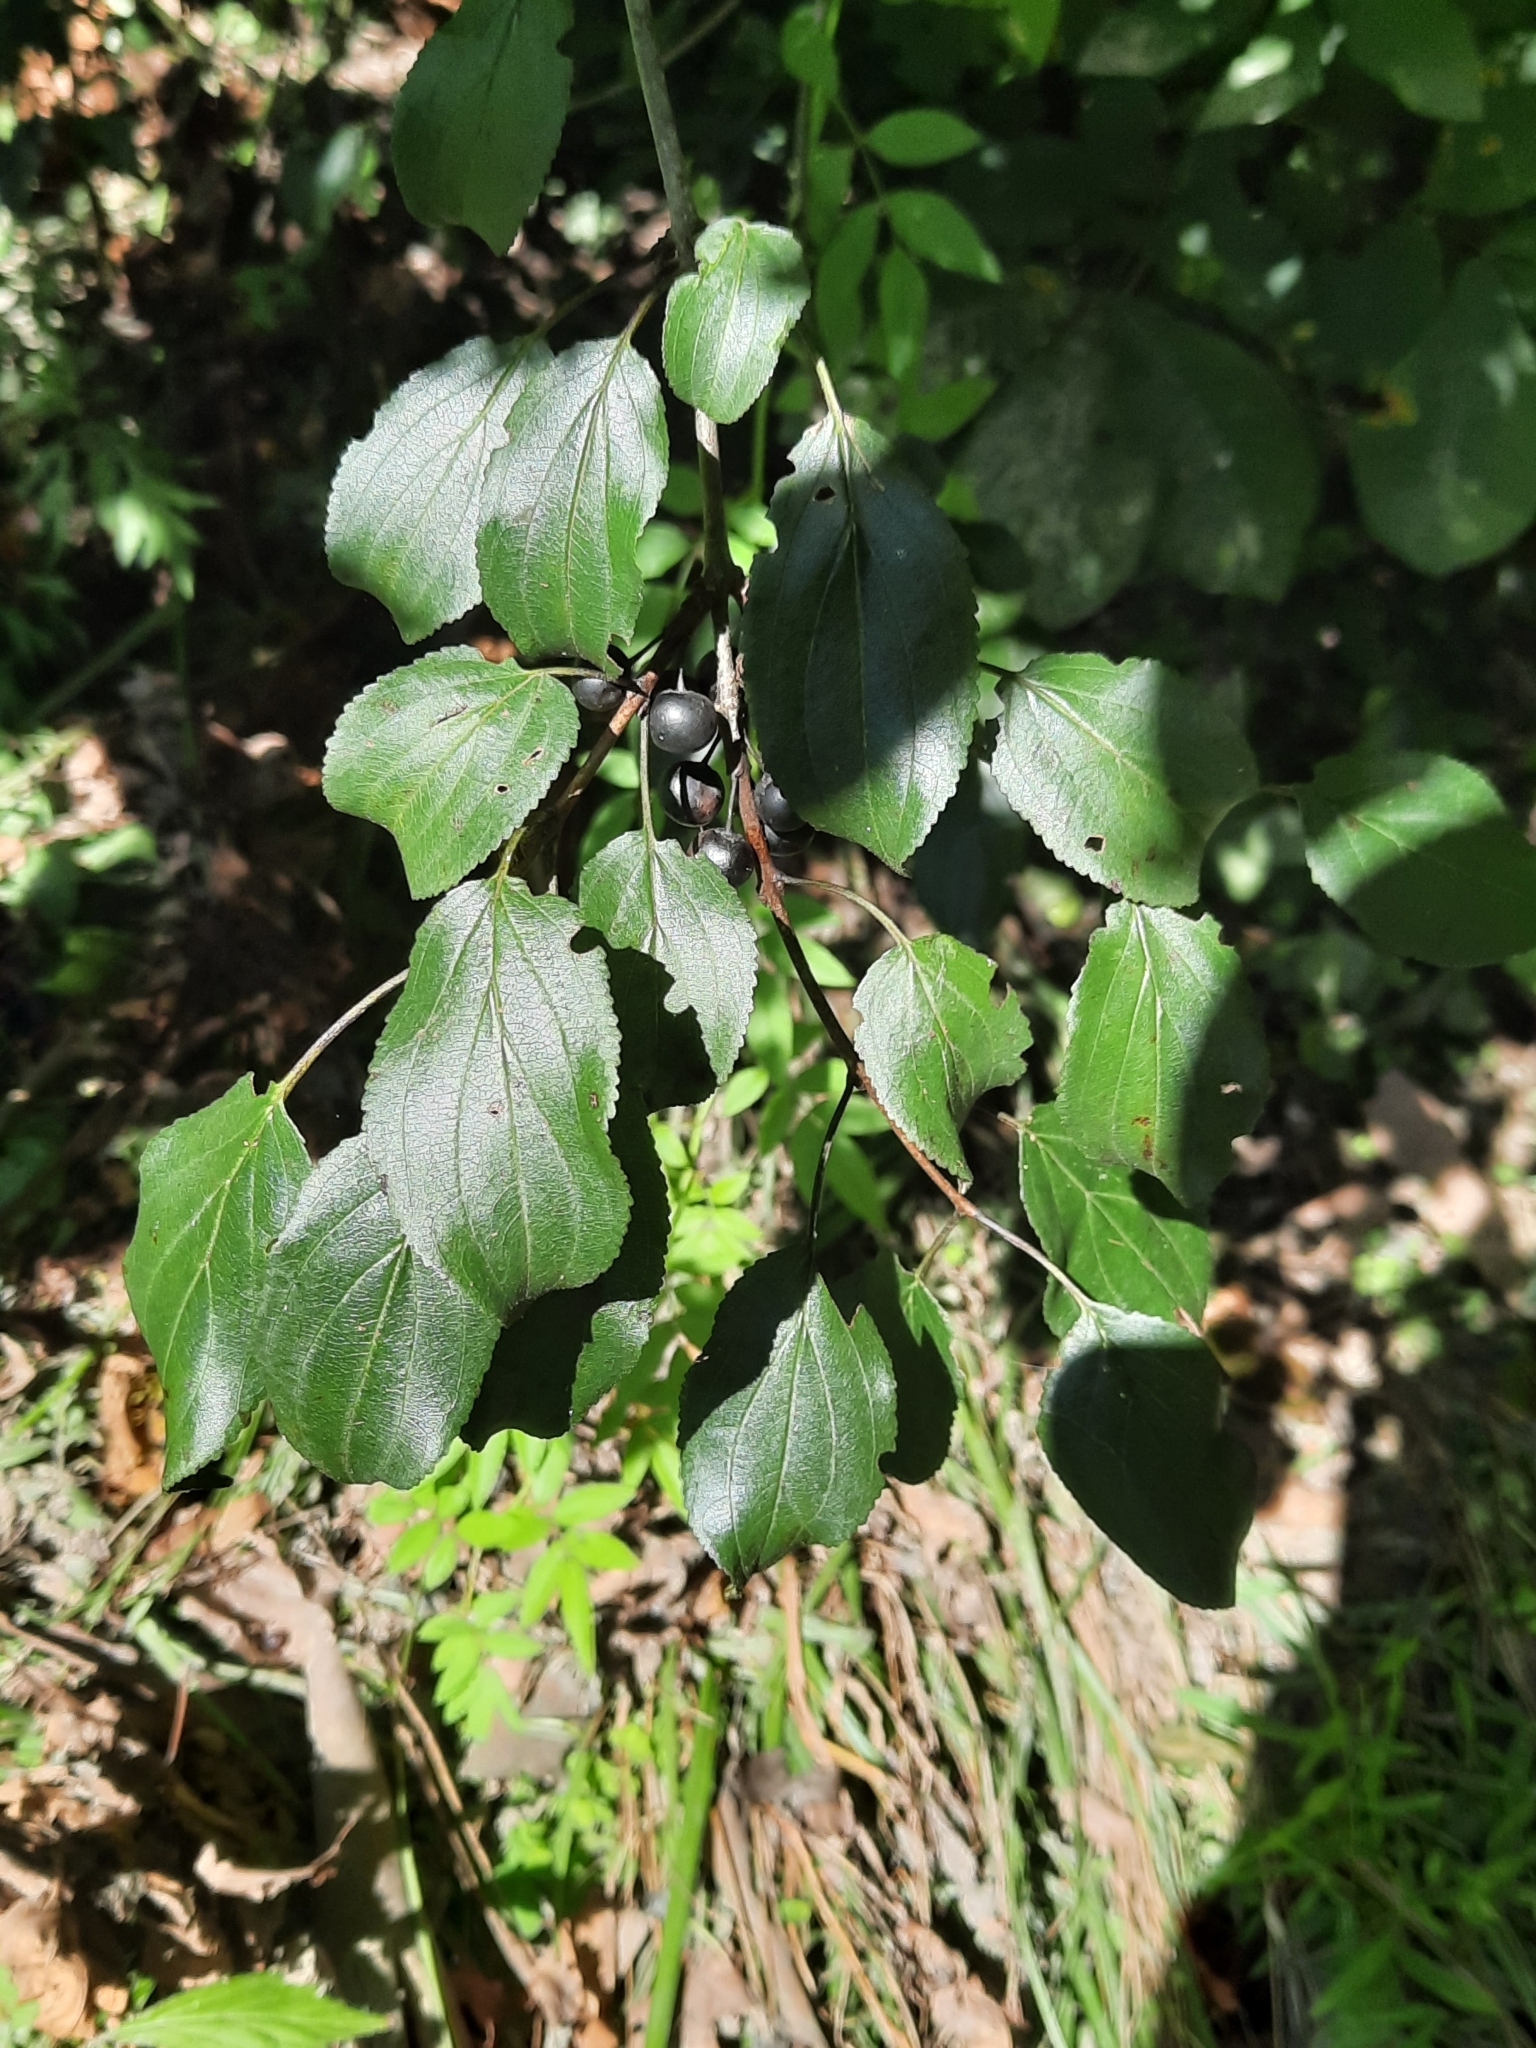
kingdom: Plantae
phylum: Tracheophyta
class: Magnoliopsida
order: Rosales
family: Rhamnaceae
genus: Rhamnus
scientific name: Rhamnus cathartica
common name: Common buckthorn
